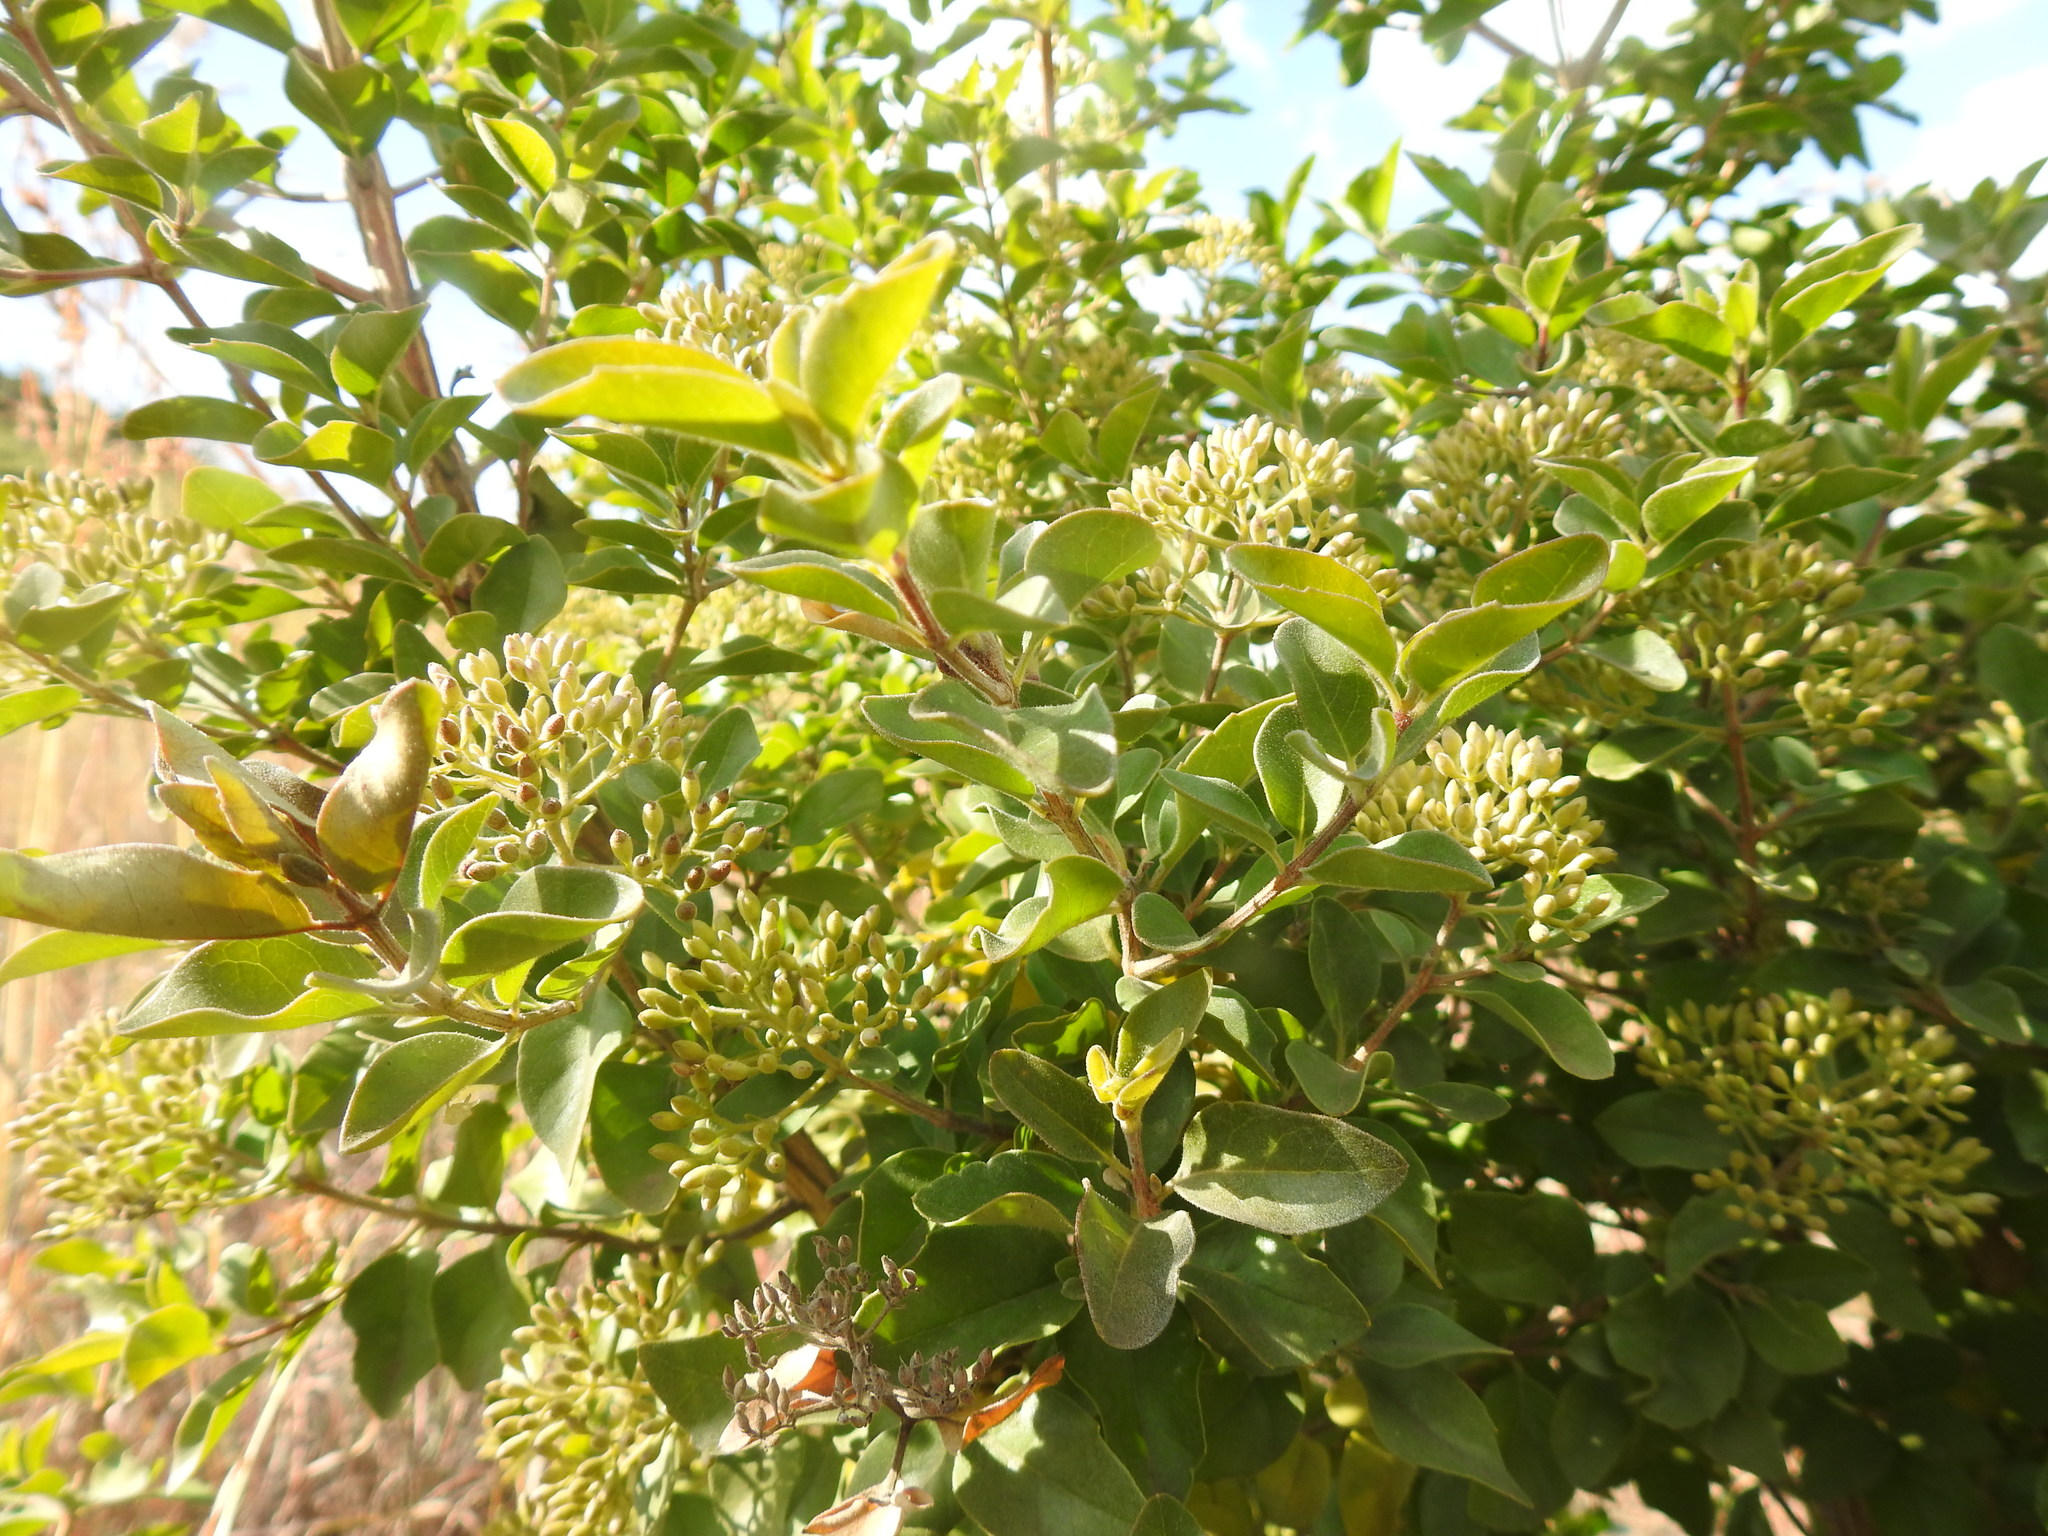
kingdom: Plantae
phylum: Tracheophyta
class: Magnoliopsida
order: Lamiales
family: Stilbaceae
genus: Nuxia
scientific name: Nuxia congesta
